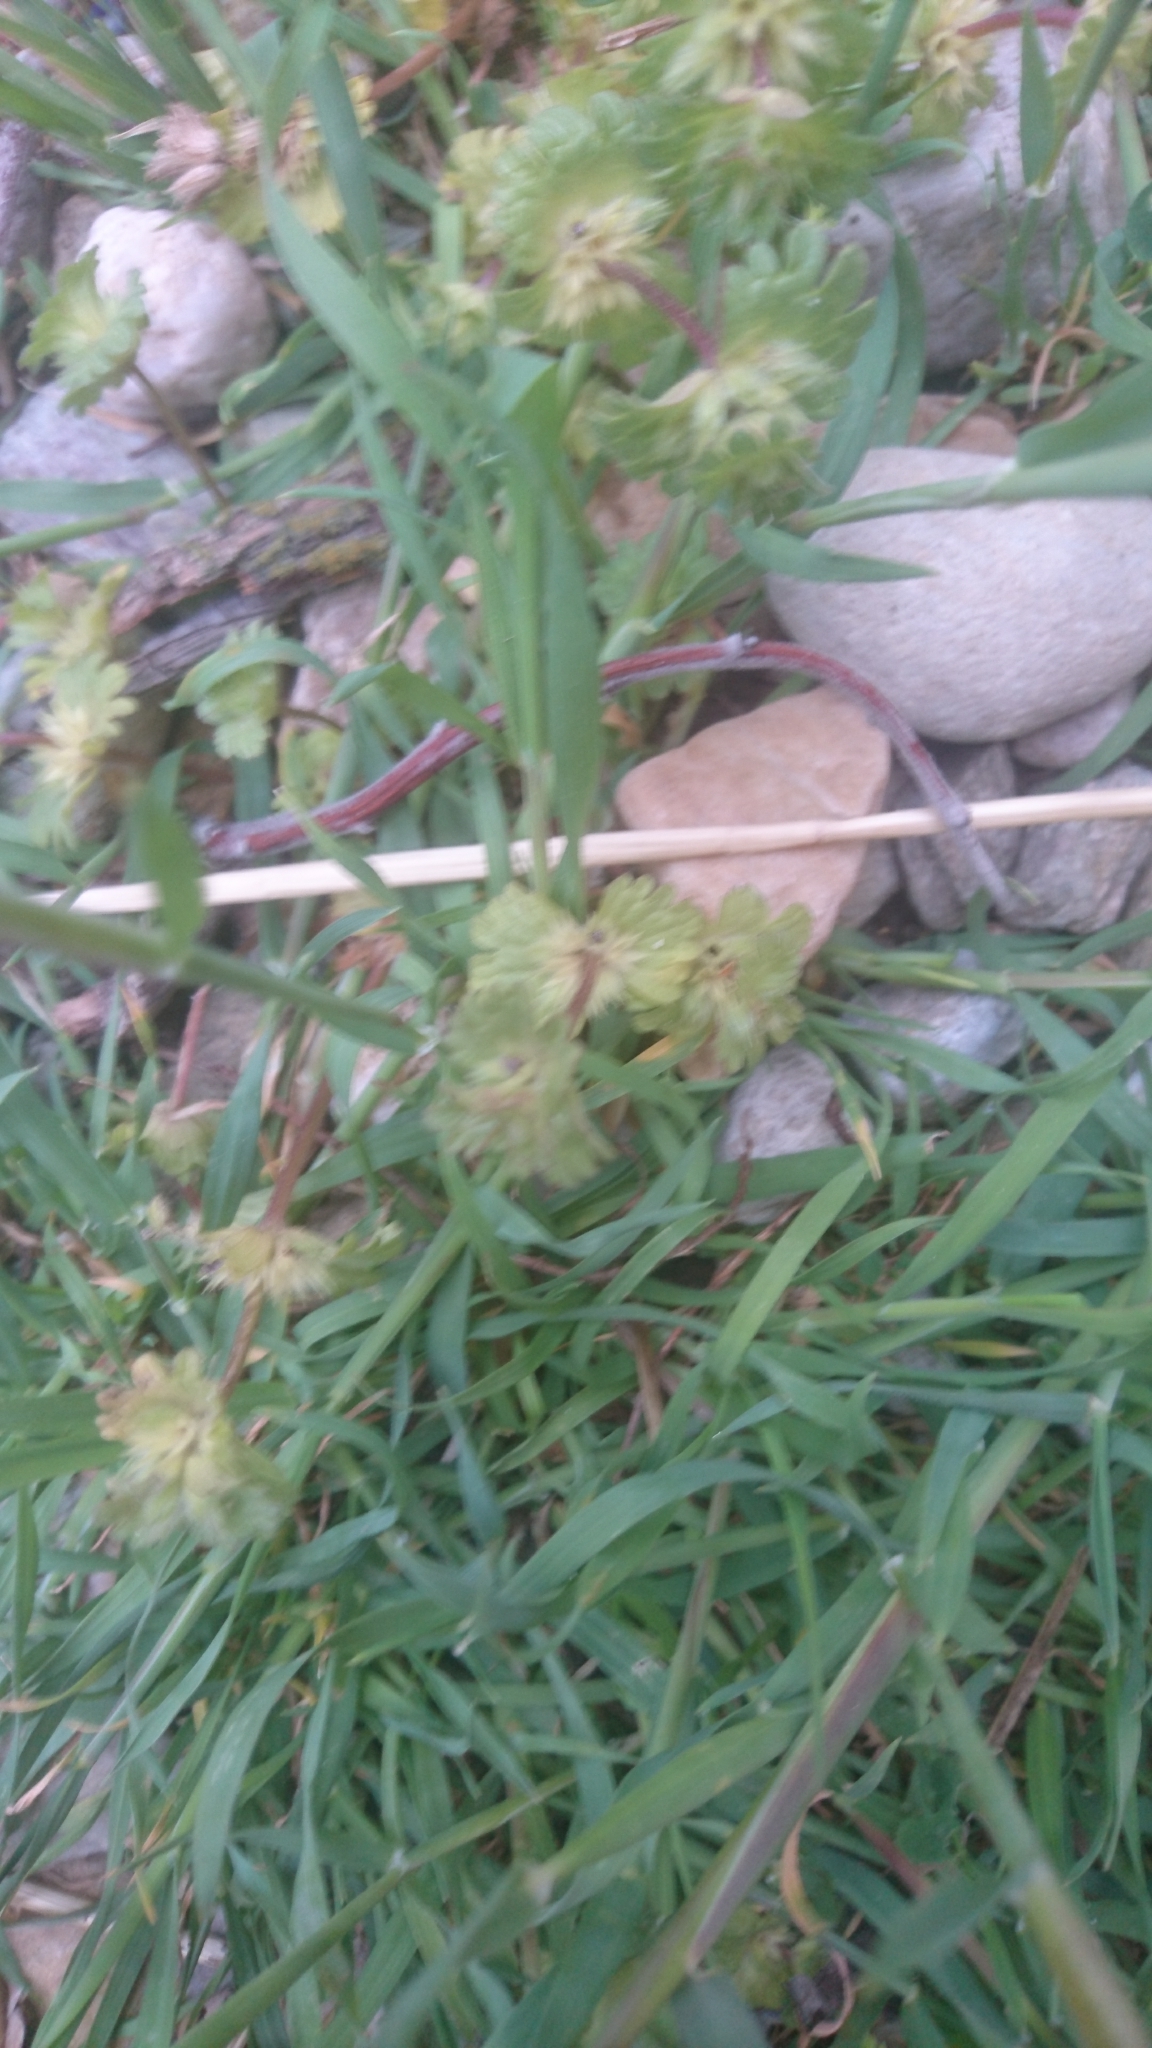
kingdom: Plantae
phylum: Tracheophyta
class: Magnoliopsida
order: Lamiales
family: Lamiaceae
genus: Lamium
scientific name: Lamium amplexicaule
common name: Henbit dead-nettle
